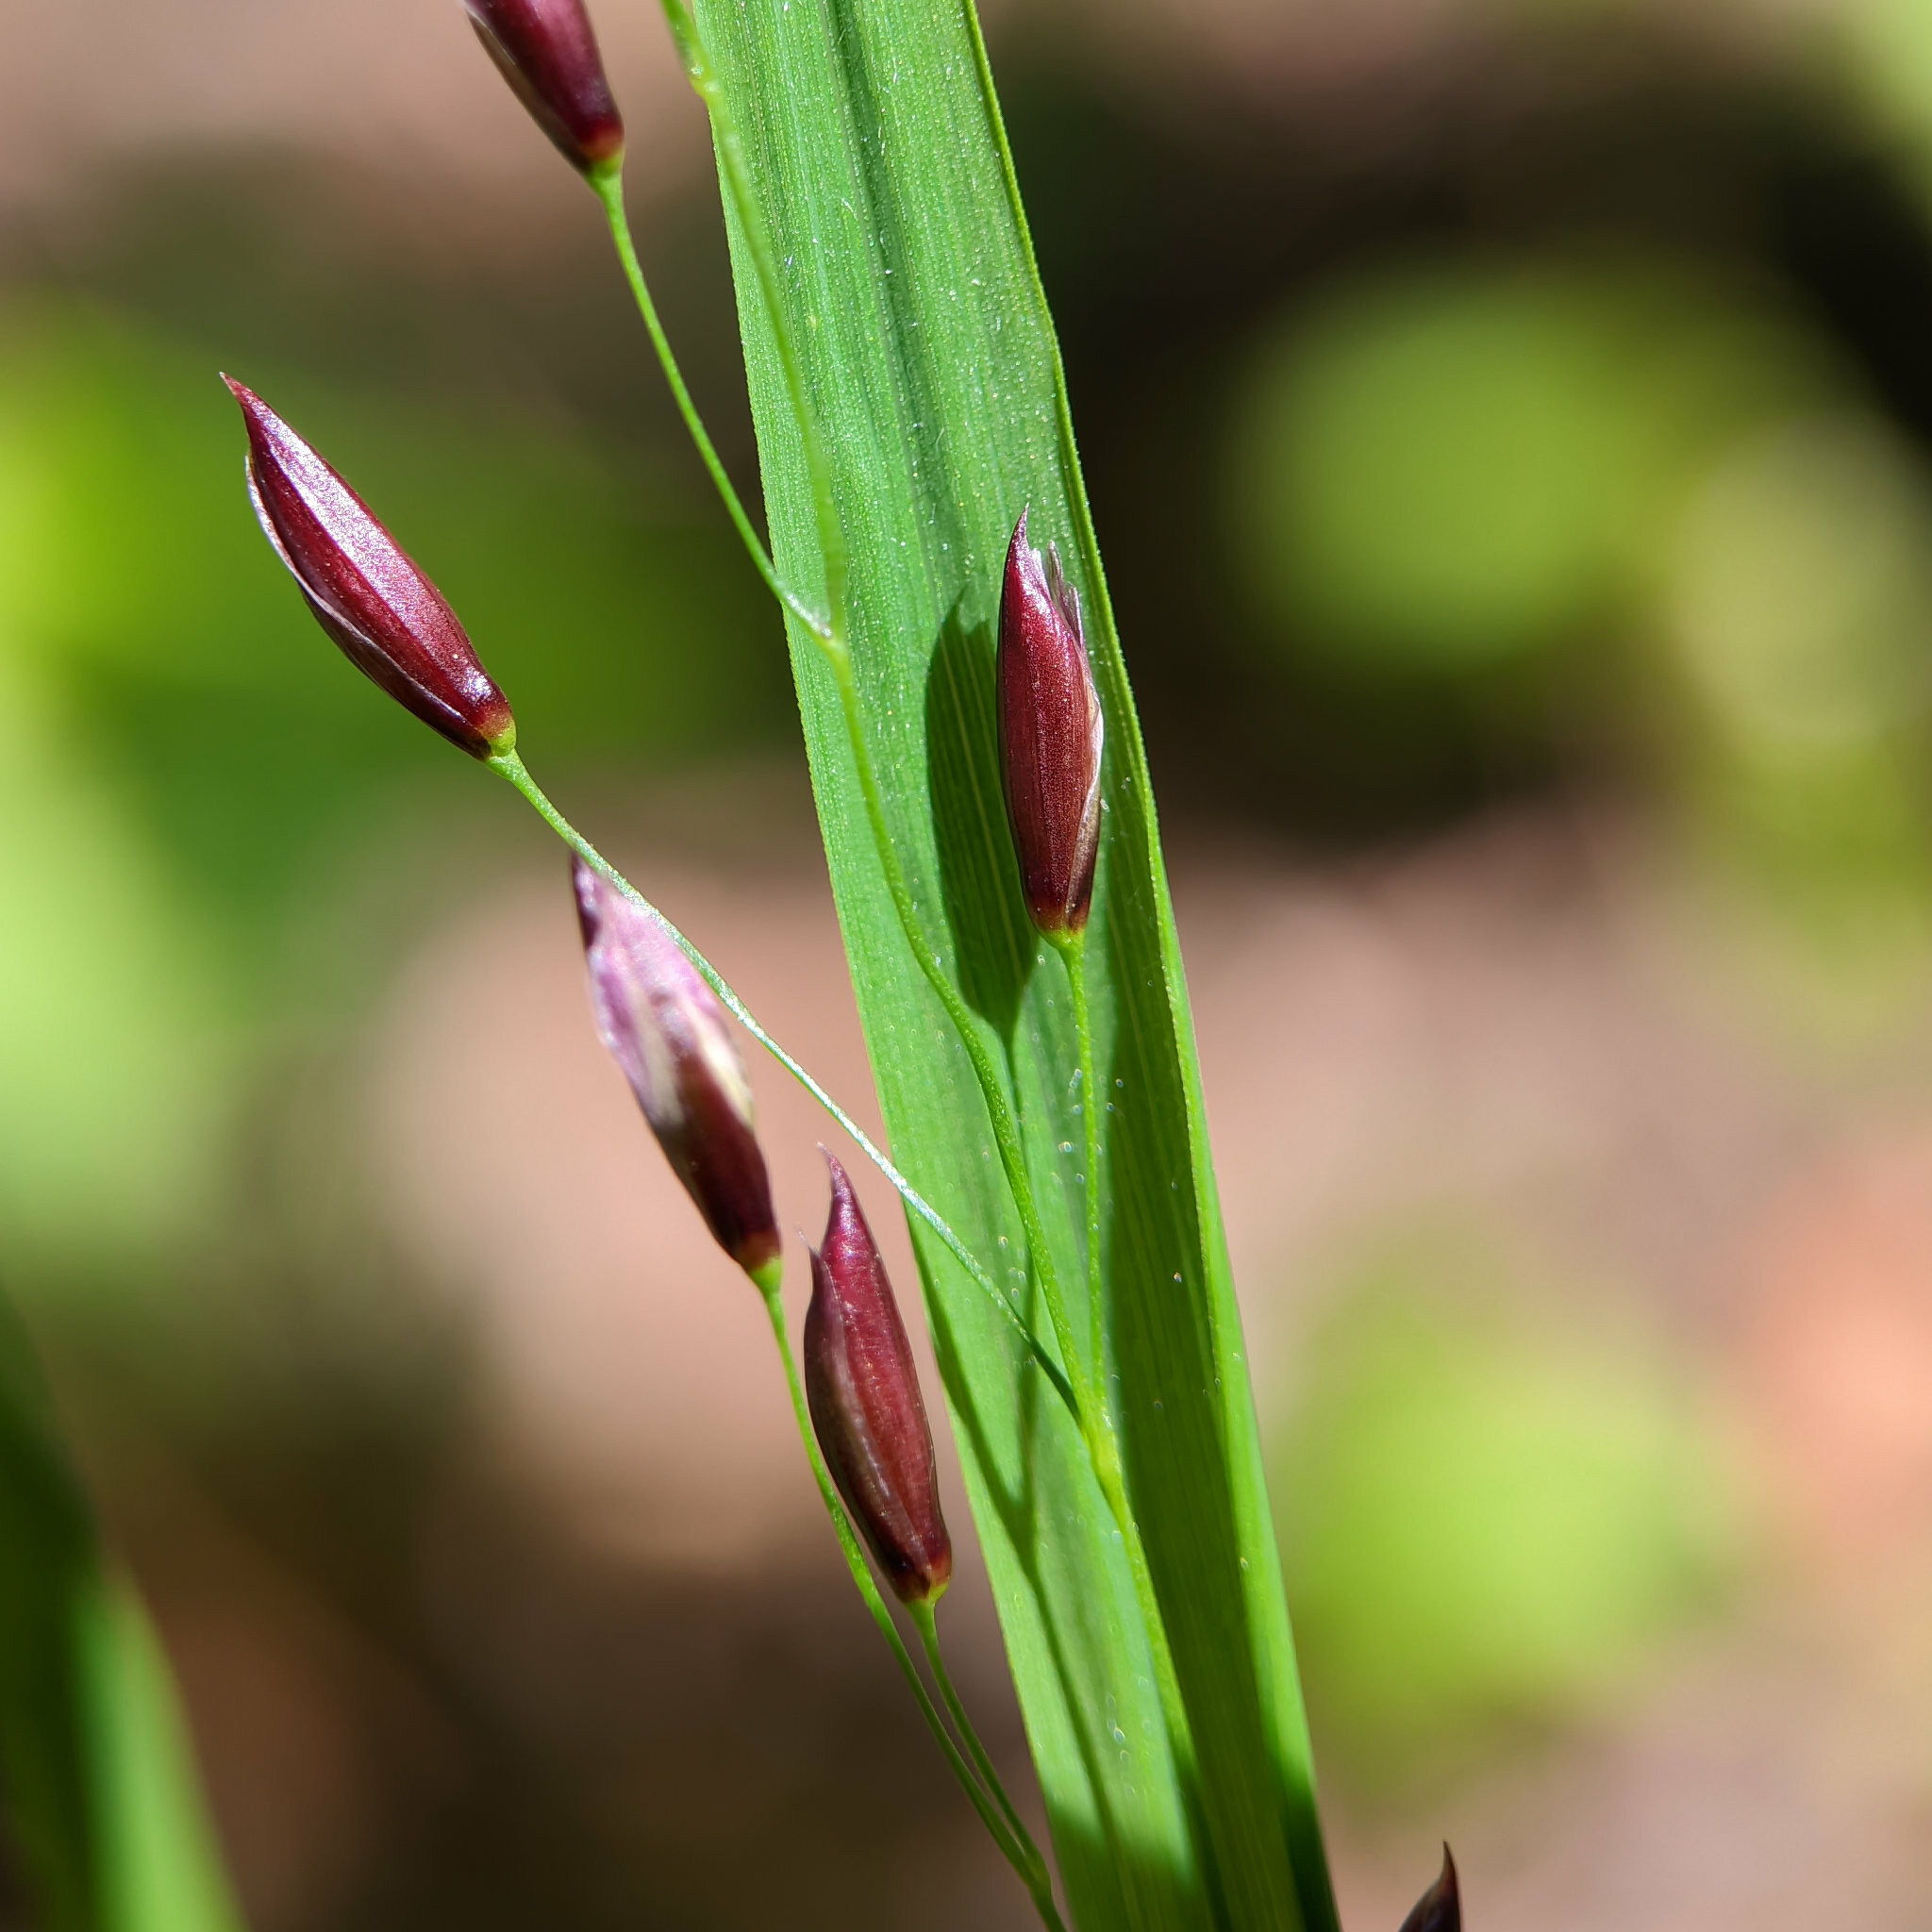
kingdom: Plantae
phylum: Tracheophyta
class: Liliopsida
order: Poales
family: Poaceae
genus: Melica
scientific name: Melica uniflora
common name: Wood melick
